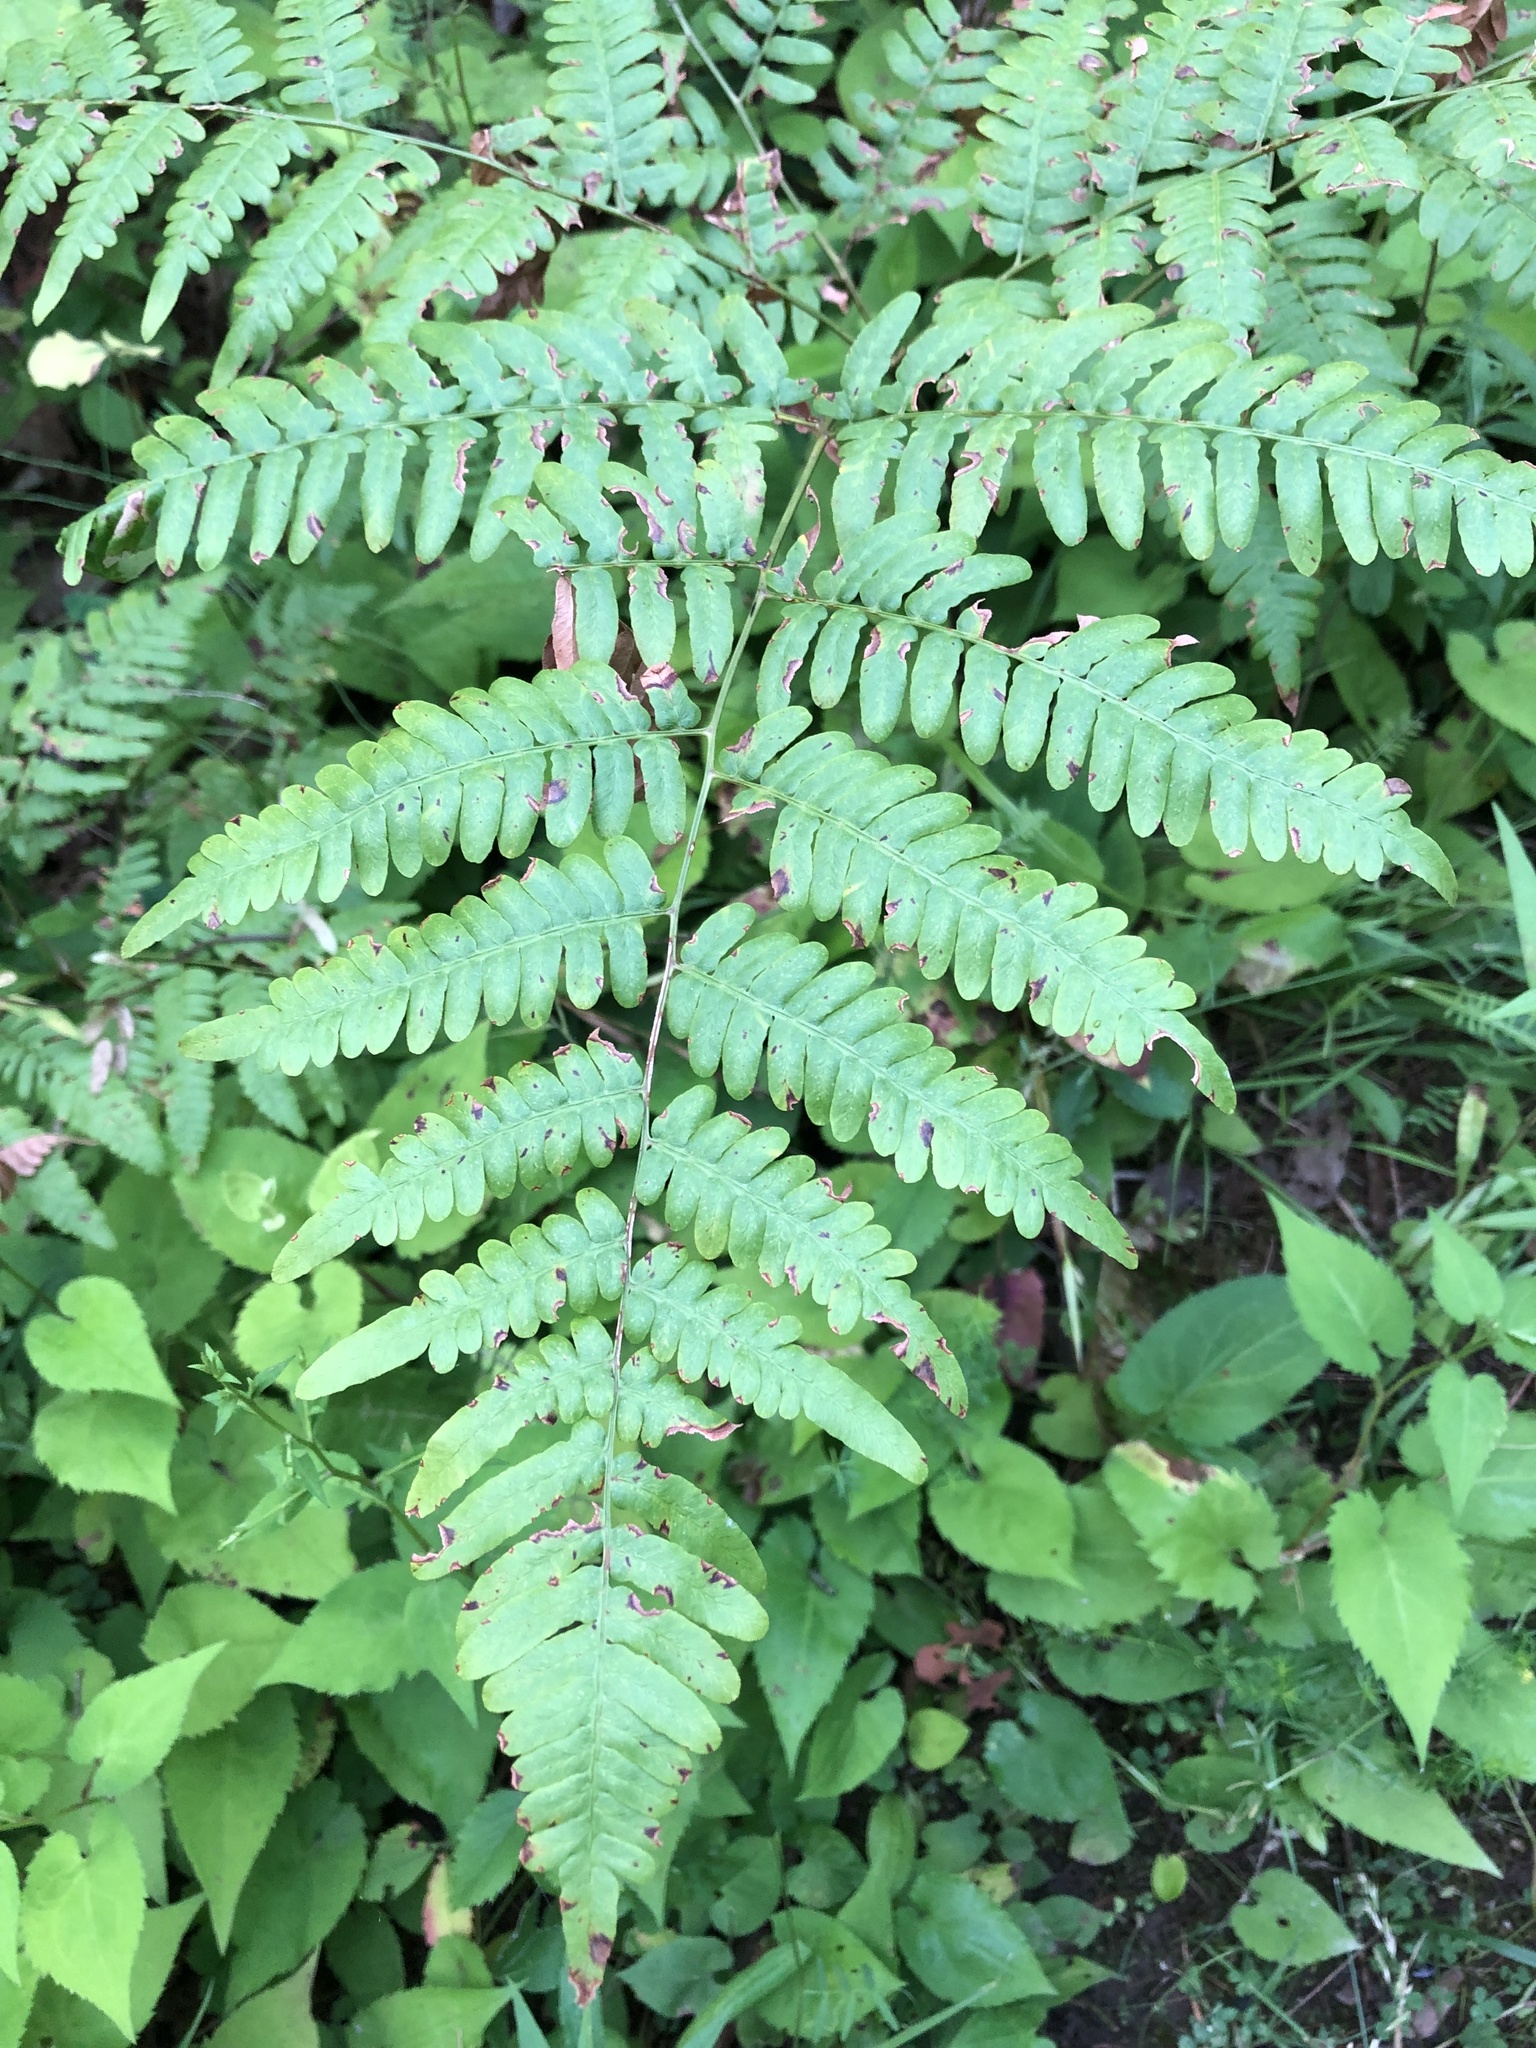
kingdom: Plantae
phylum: Tracheophyta
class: Polypodiopsida
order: Polypodiales
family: Dennstaedtiaceae
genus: Pteridium
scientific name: Pteridium aquilinum
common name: Bracken
